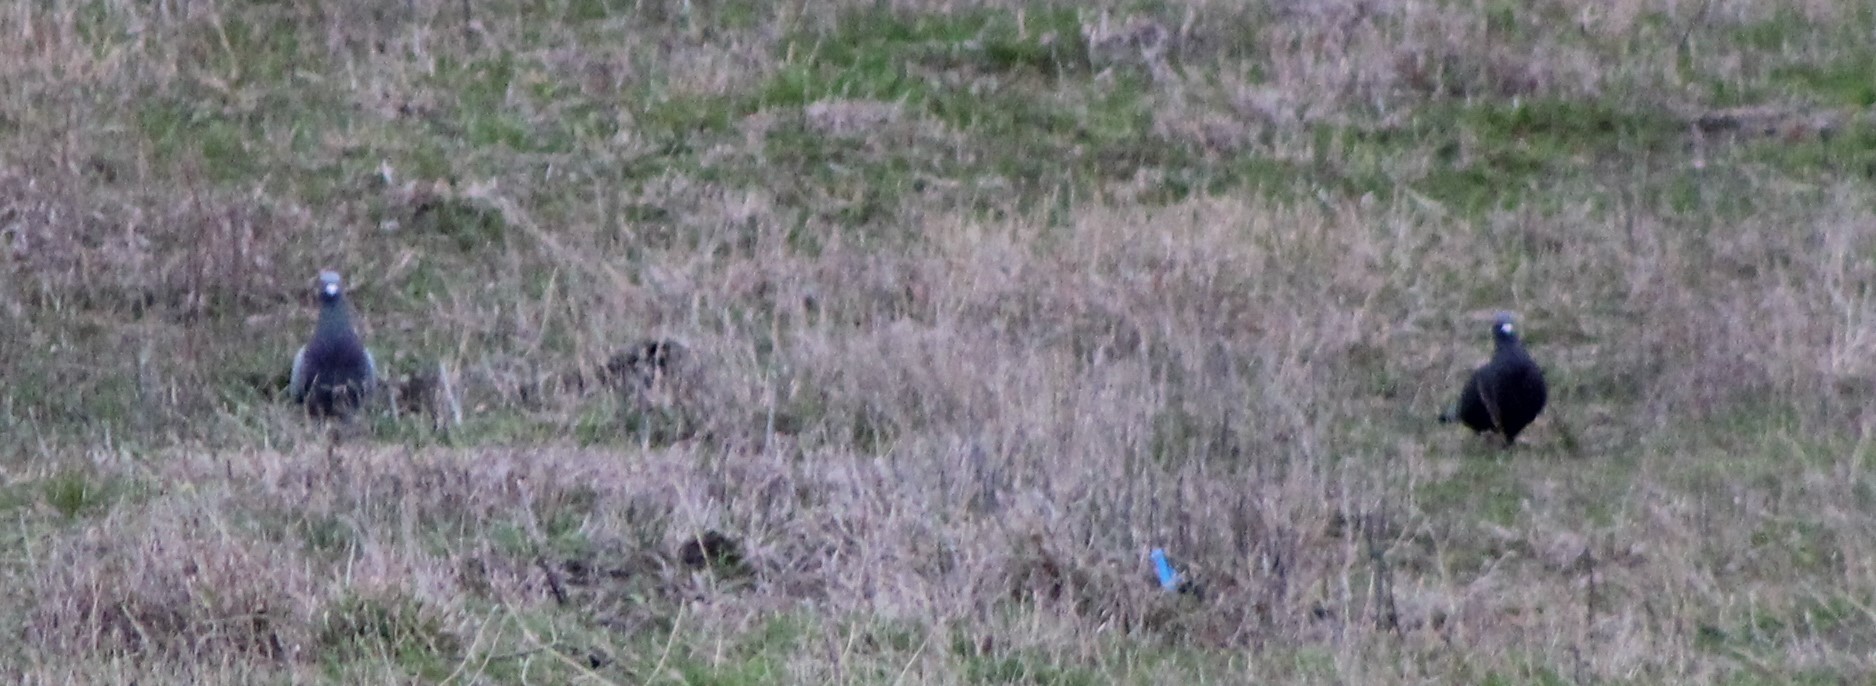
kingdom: Animalia
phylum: Chordata
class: Aves
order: Columbiformes
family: Columbidae
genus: Columba
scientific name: Columba livia
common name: Rock pigeon
